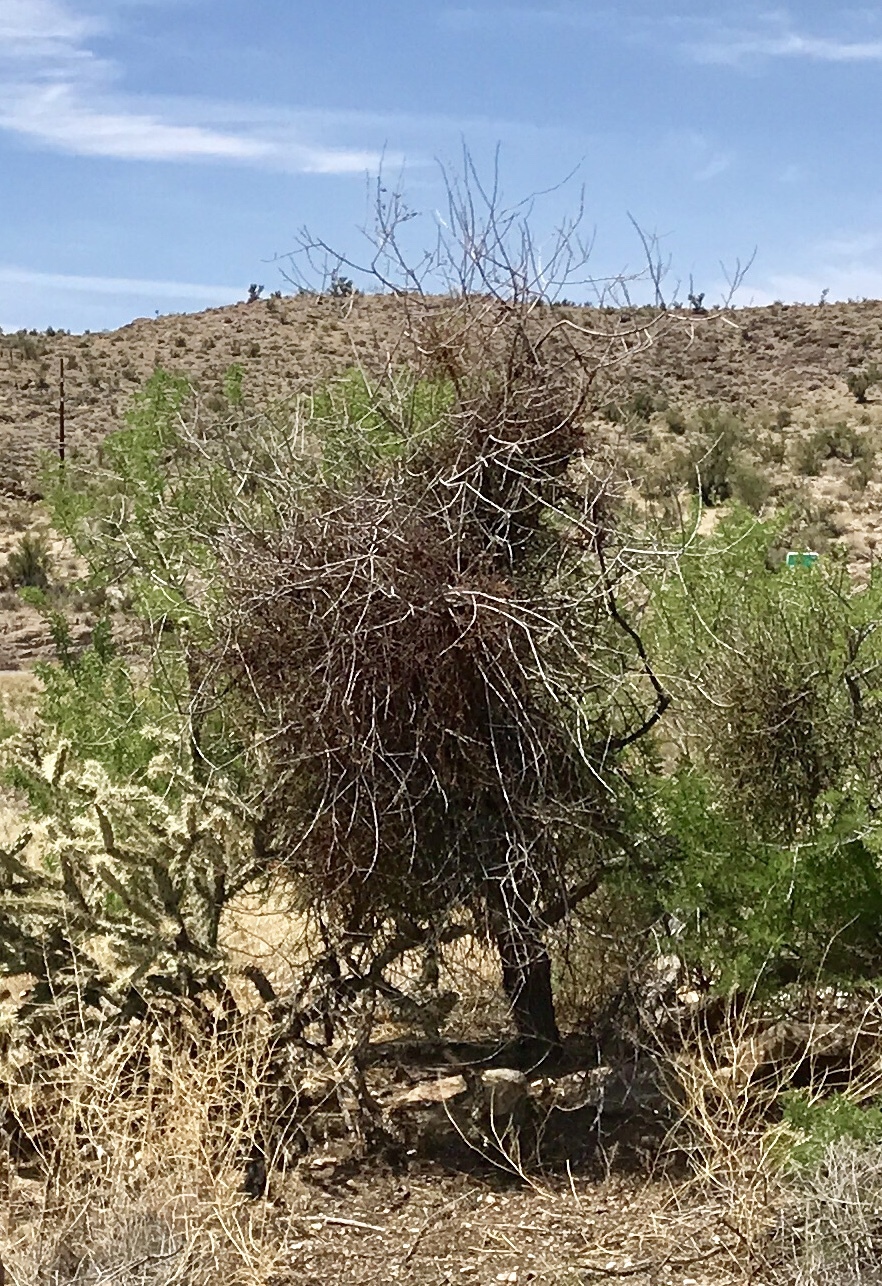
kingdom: Plantae
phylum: Tracheophyta
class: Magnoliopsida
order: Santalales
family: Viscaceae
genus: Phoradendron
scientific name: Phoradendron californicum
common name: Acacia mistletoe
